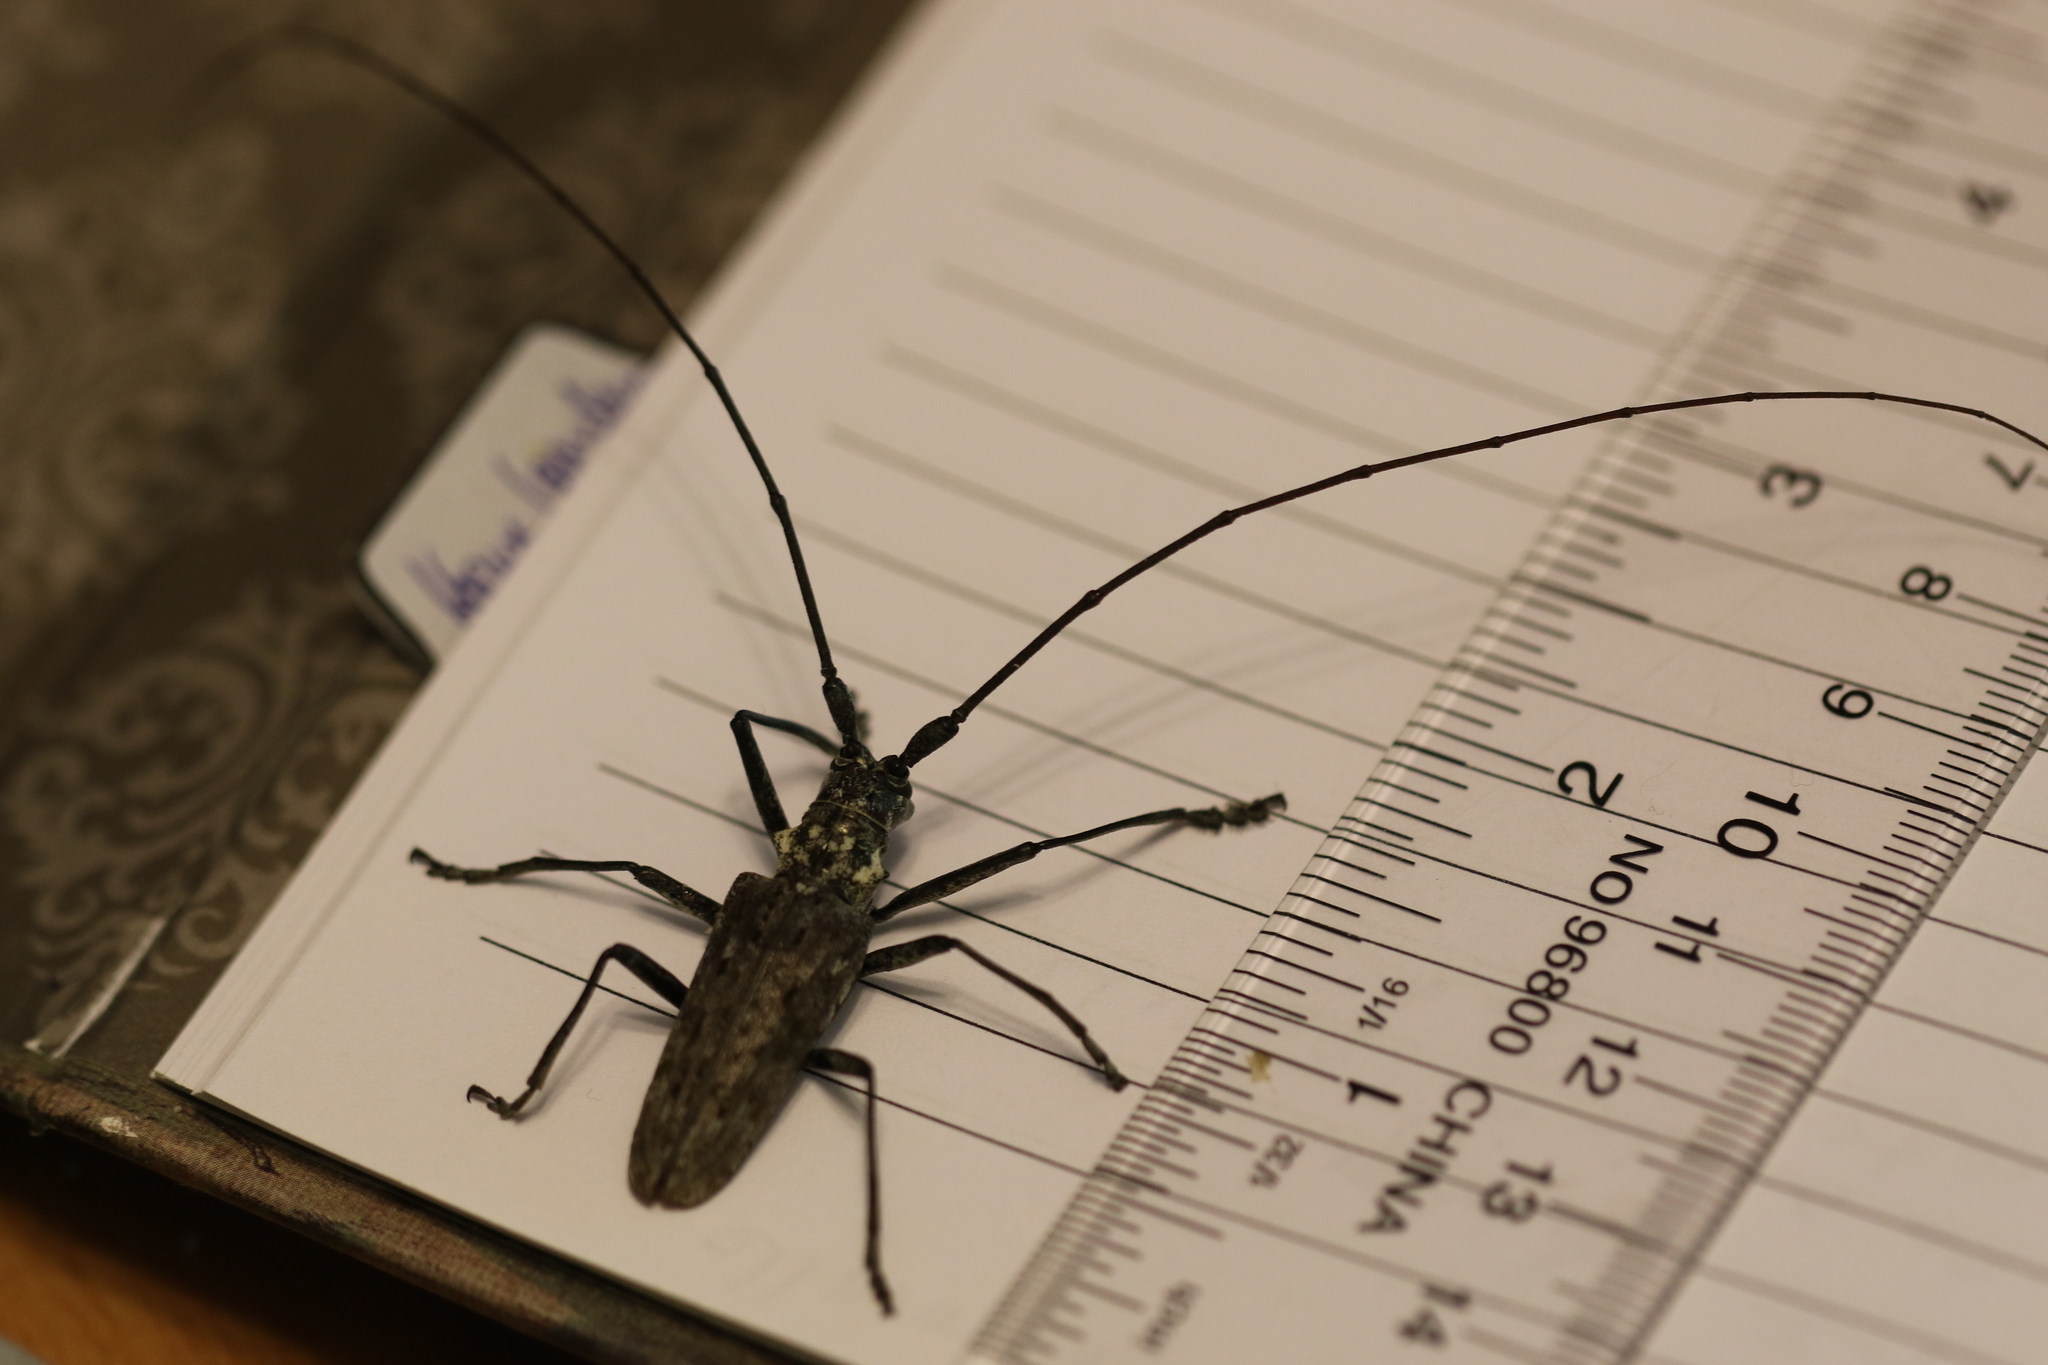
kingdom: Animalia
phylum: Arthropoda
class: Insecta
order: Coleoptera
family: Cerambycidae
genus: Monochamus
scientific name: Monochamus notatus
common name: Northeastern pine sawyer beetle
